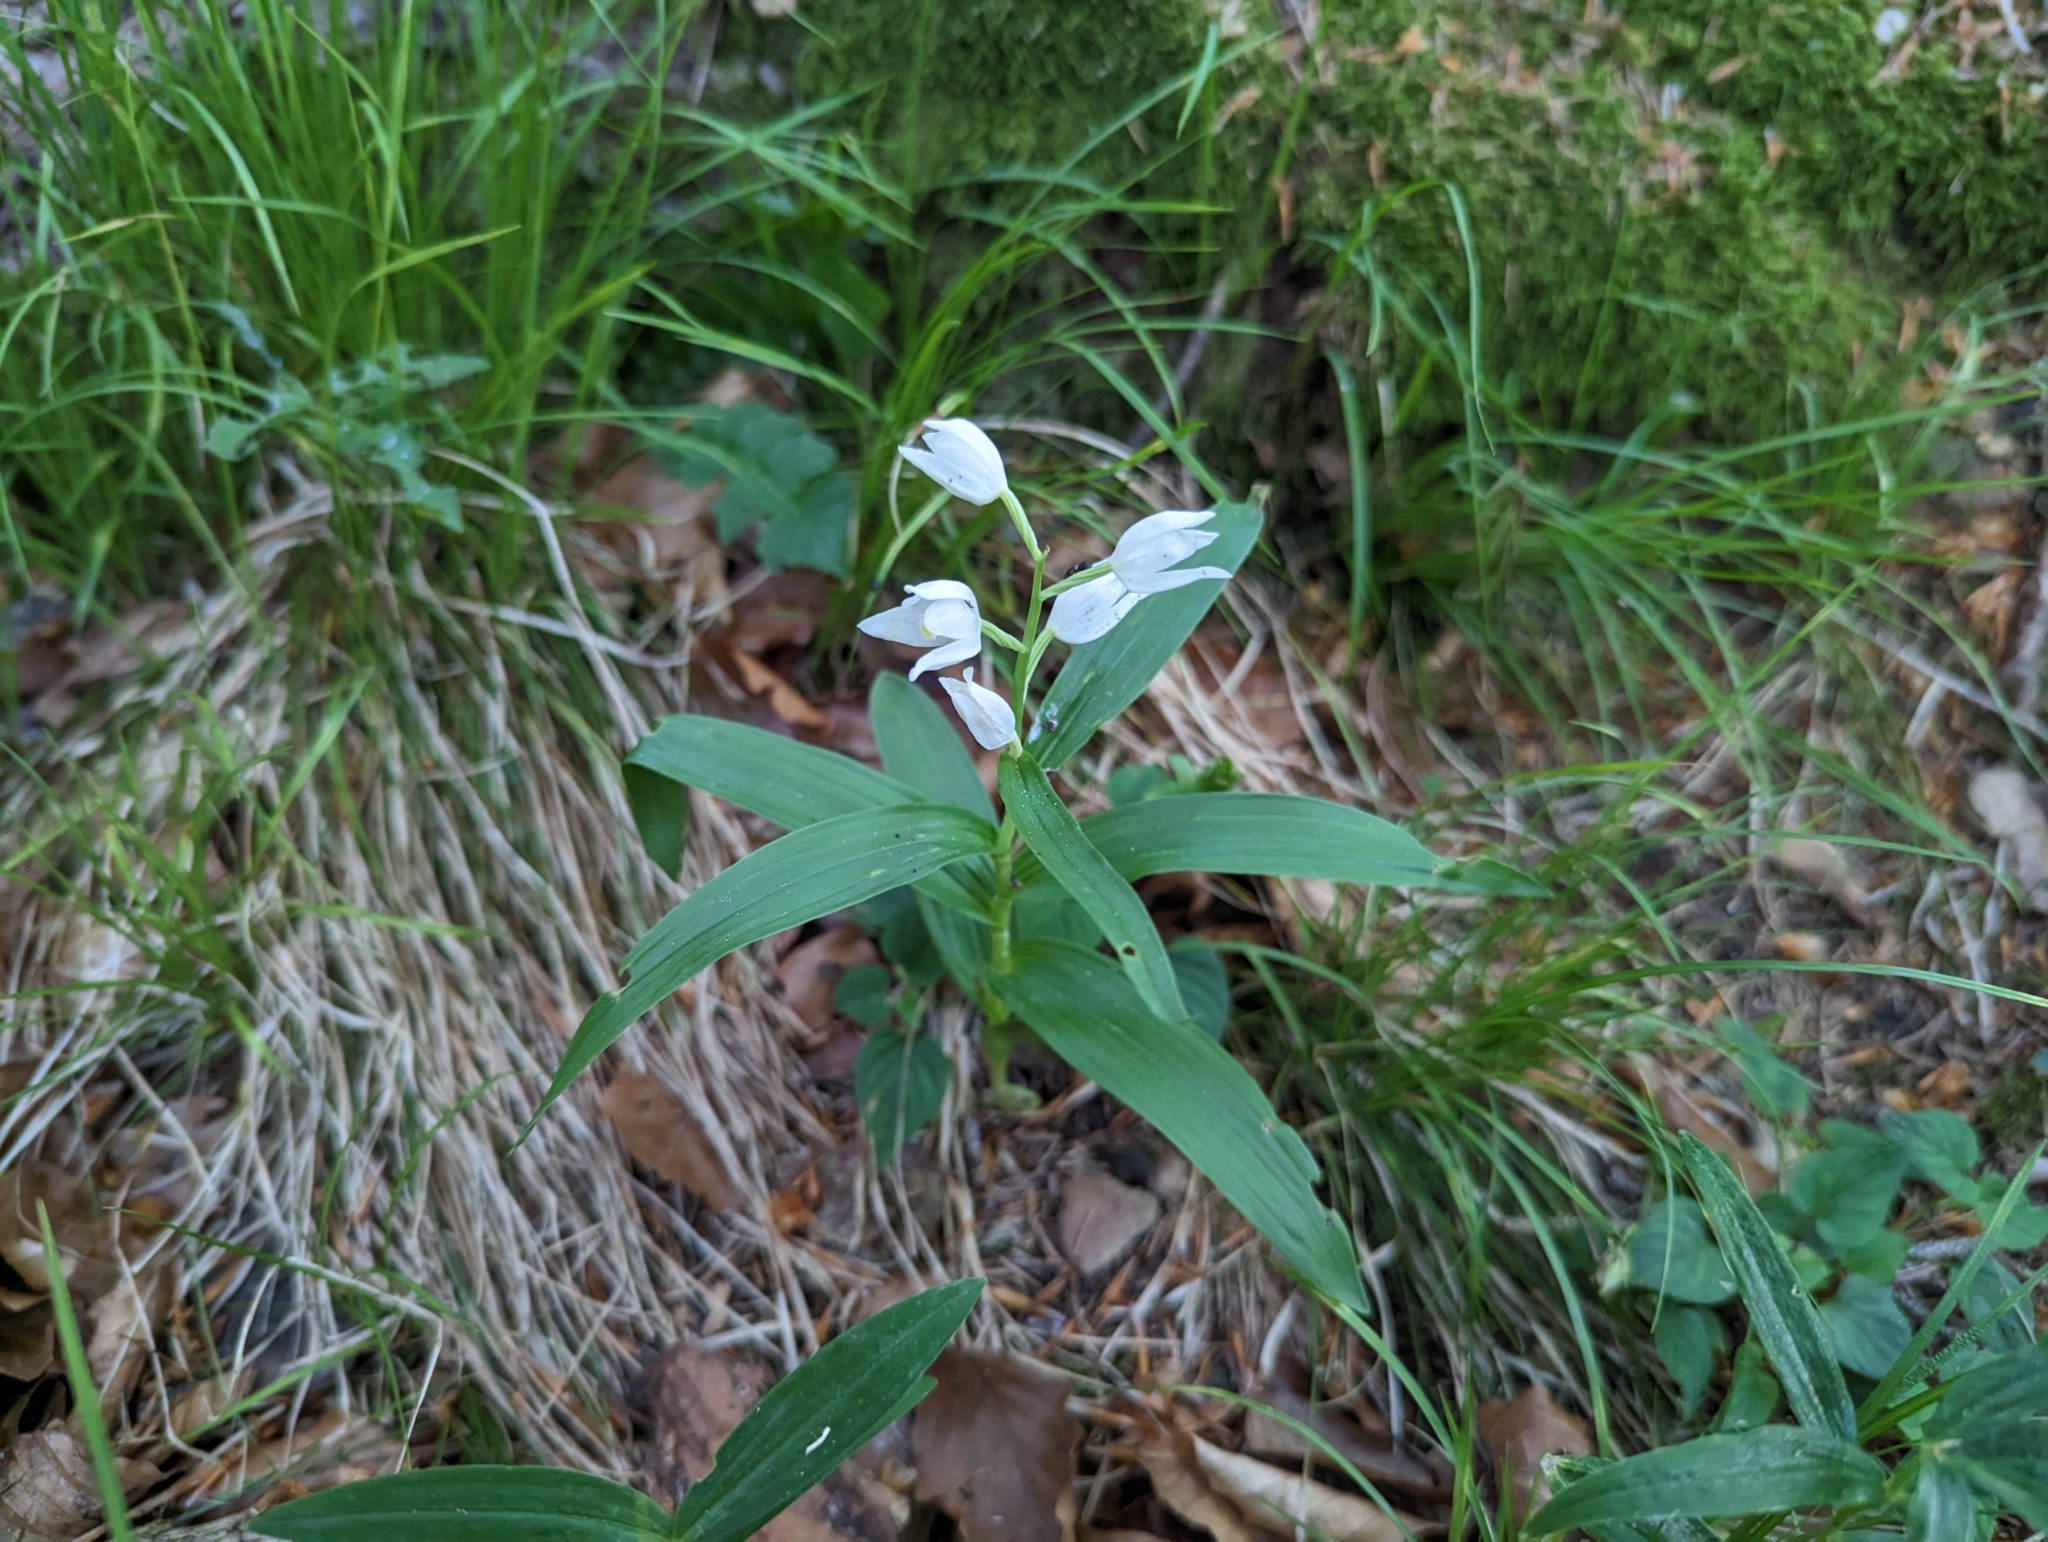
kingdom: Plantae
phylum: Tracheophyta
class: Liliopsida
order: Asparagales
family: Orchidaceae
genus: Cephalanthera
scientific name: Cephalanthera longifolia
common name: Narrow-leaved helleborine
